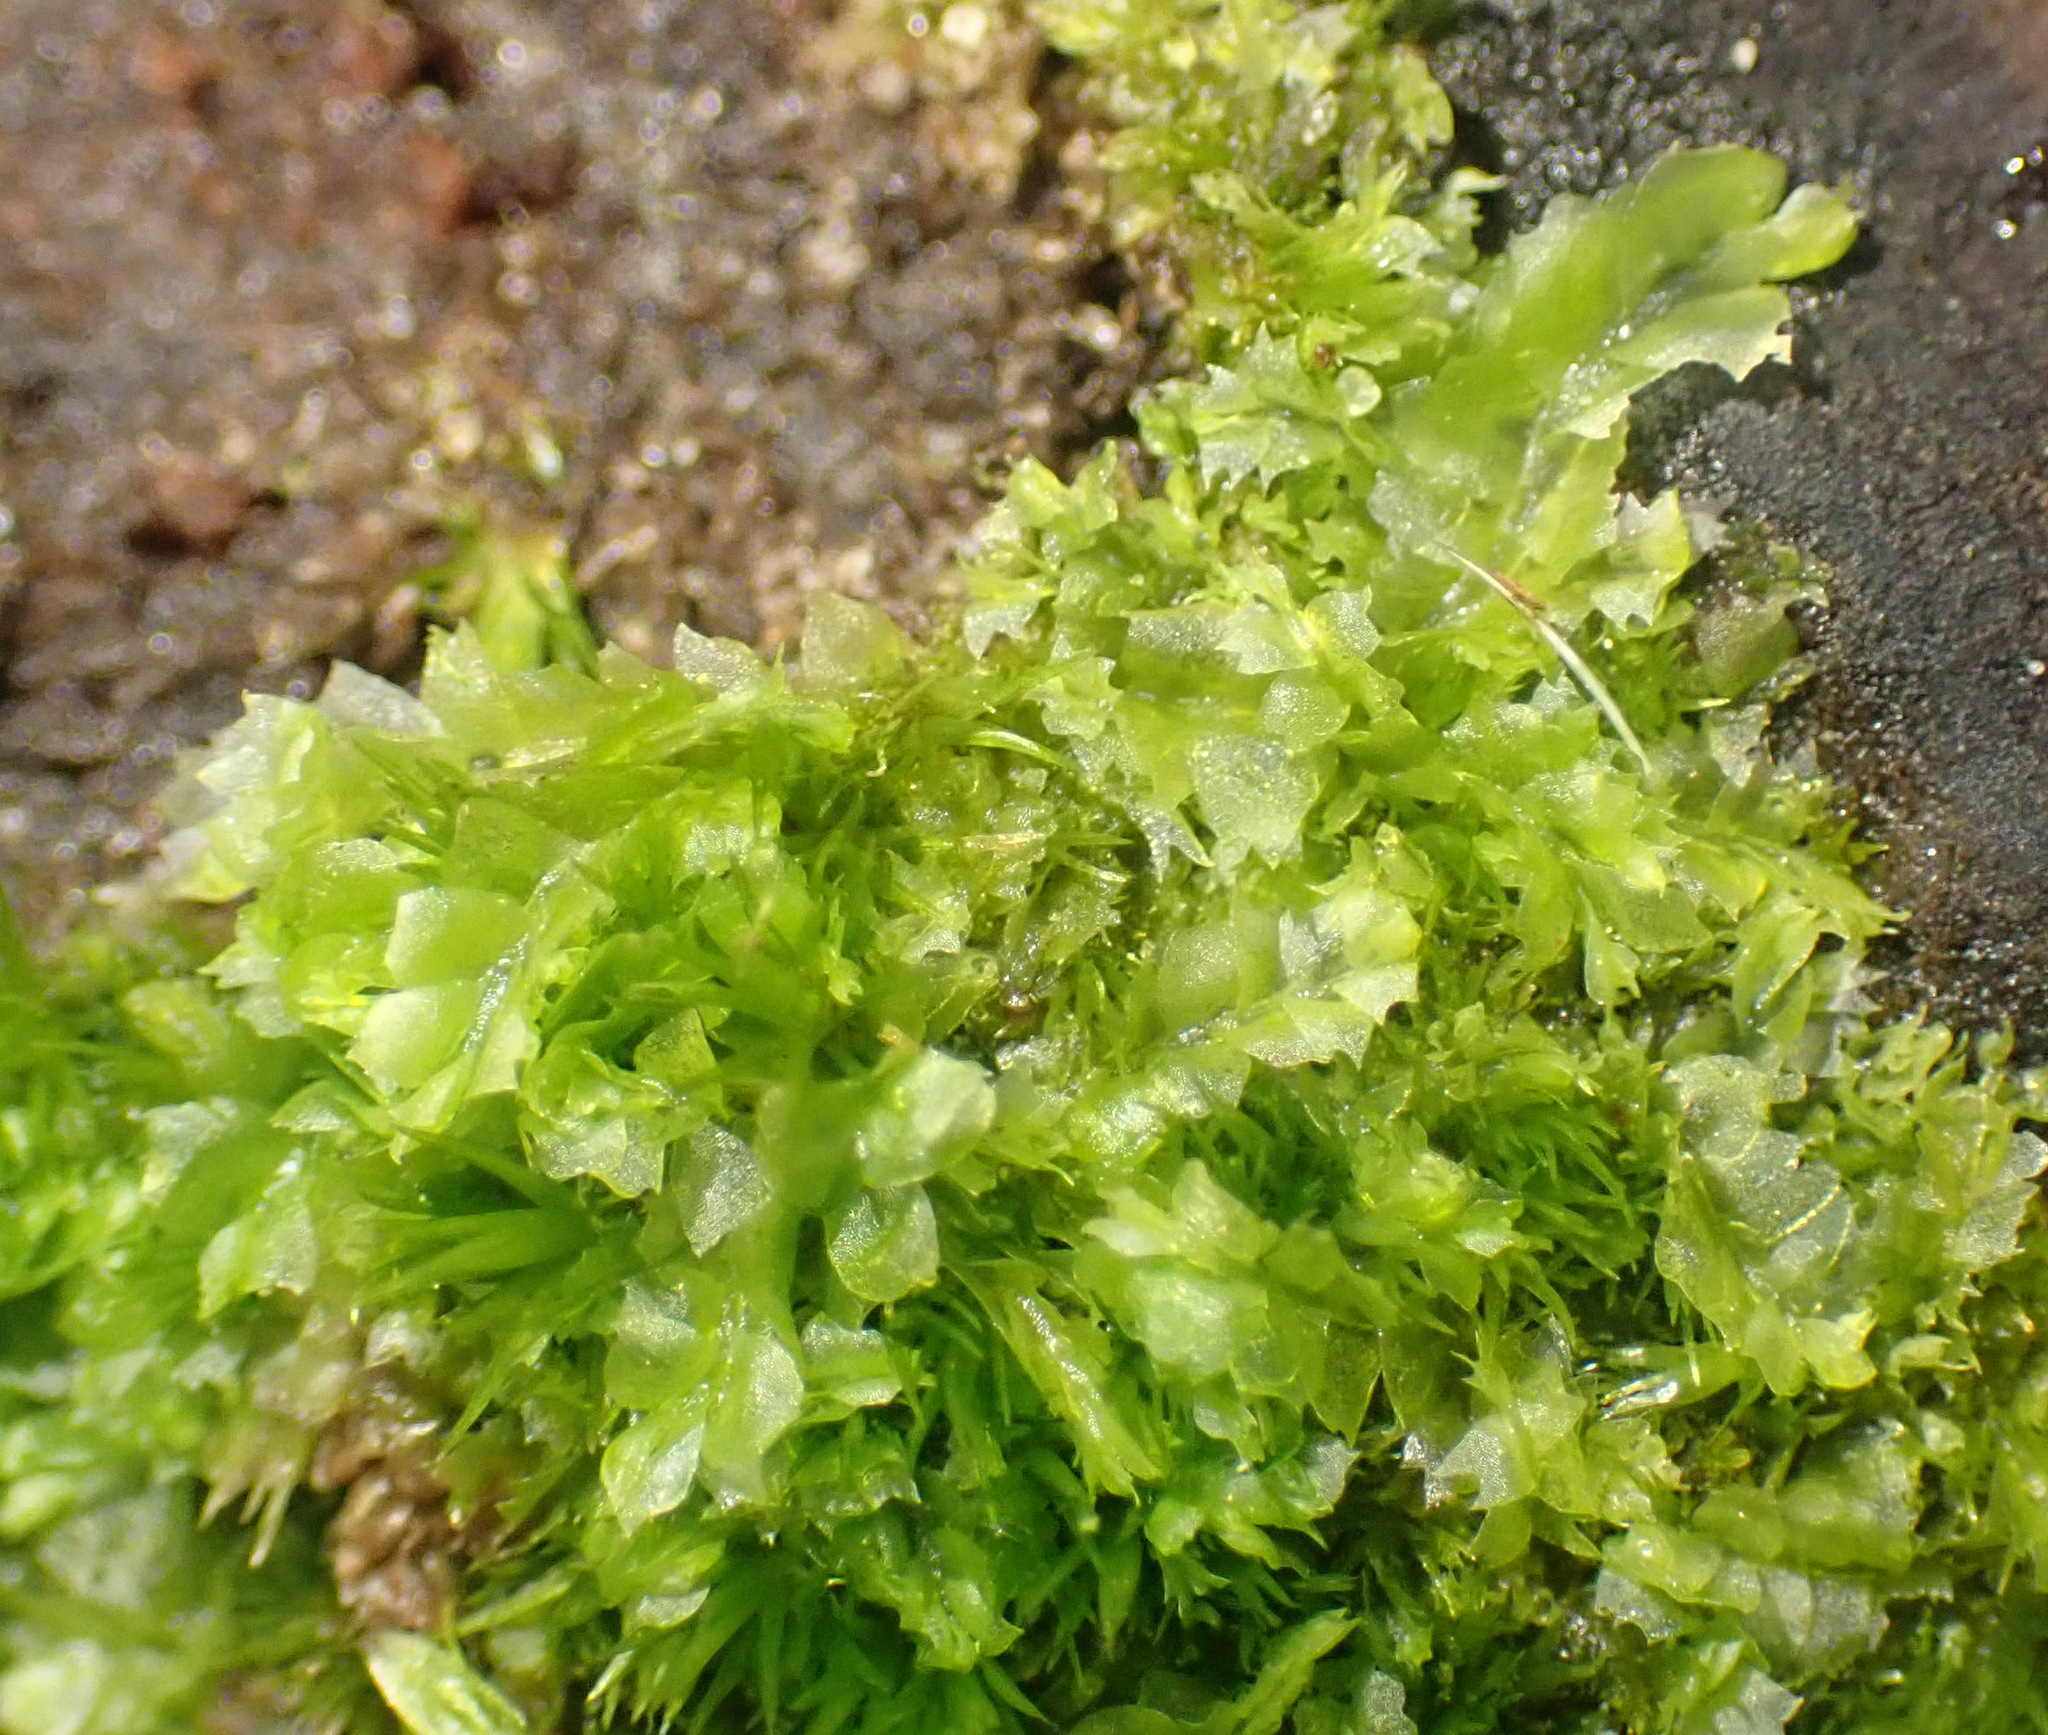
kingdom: Plantae
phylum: Marchantiophyta
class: Jungermanniopsida
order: Jungermanniales
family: Lophocoleaceae
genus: Lophocolea
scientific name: Lophocolea heterophylla
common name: Variable-leaved crestwort
